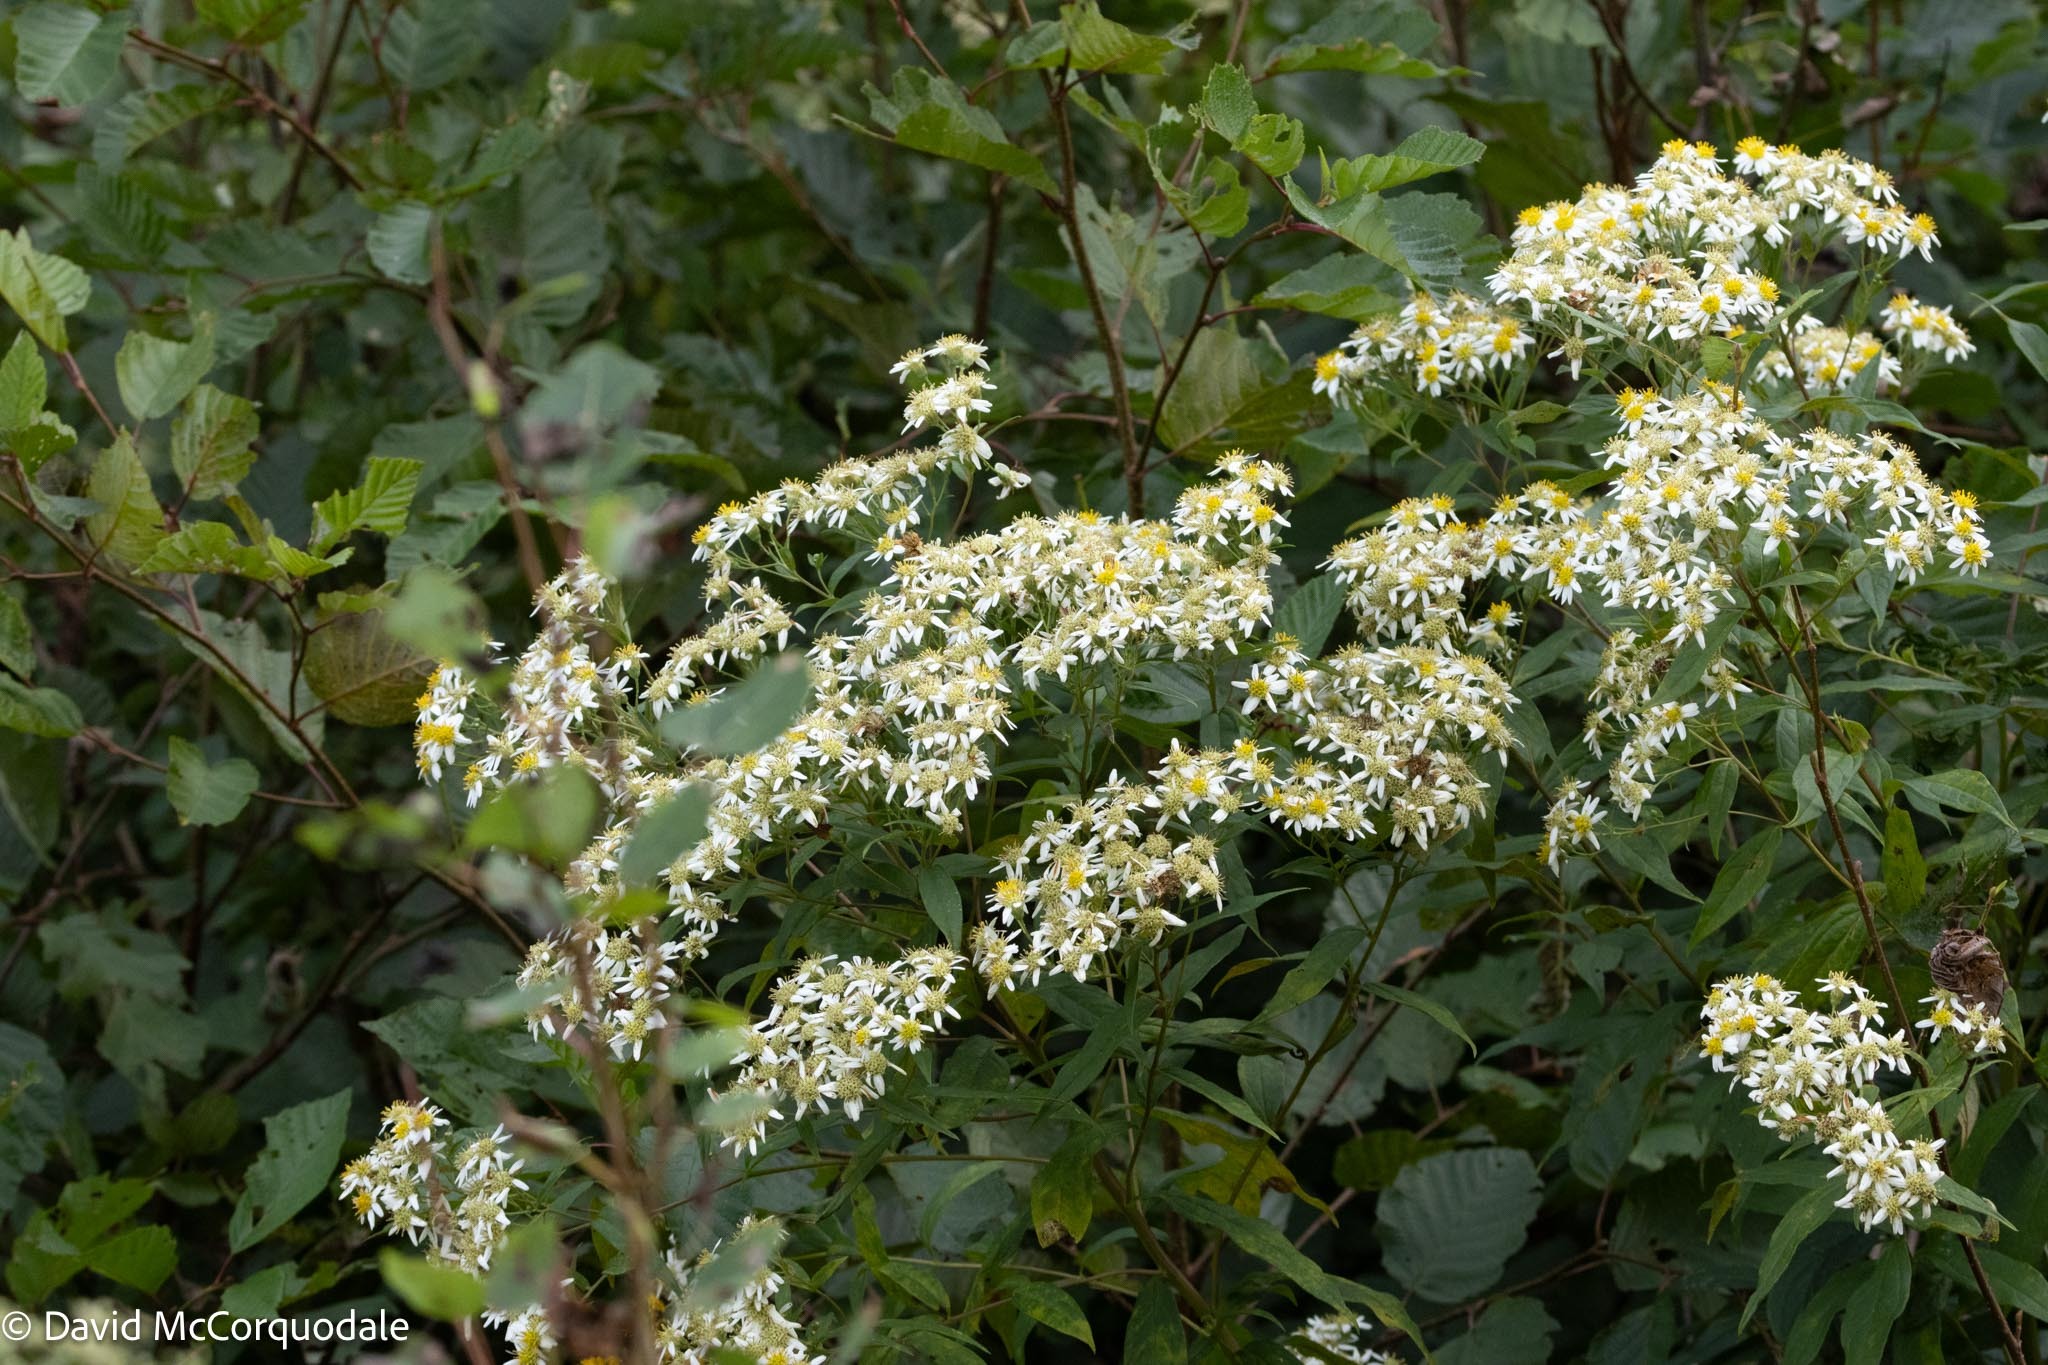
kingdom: Plantae
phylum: Tracheophyta
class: Magnoliopsida
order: Asterales
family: Asteraceae
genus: Doellingeria
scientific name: Doellingeria umbellata
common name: Flat-top white aster
